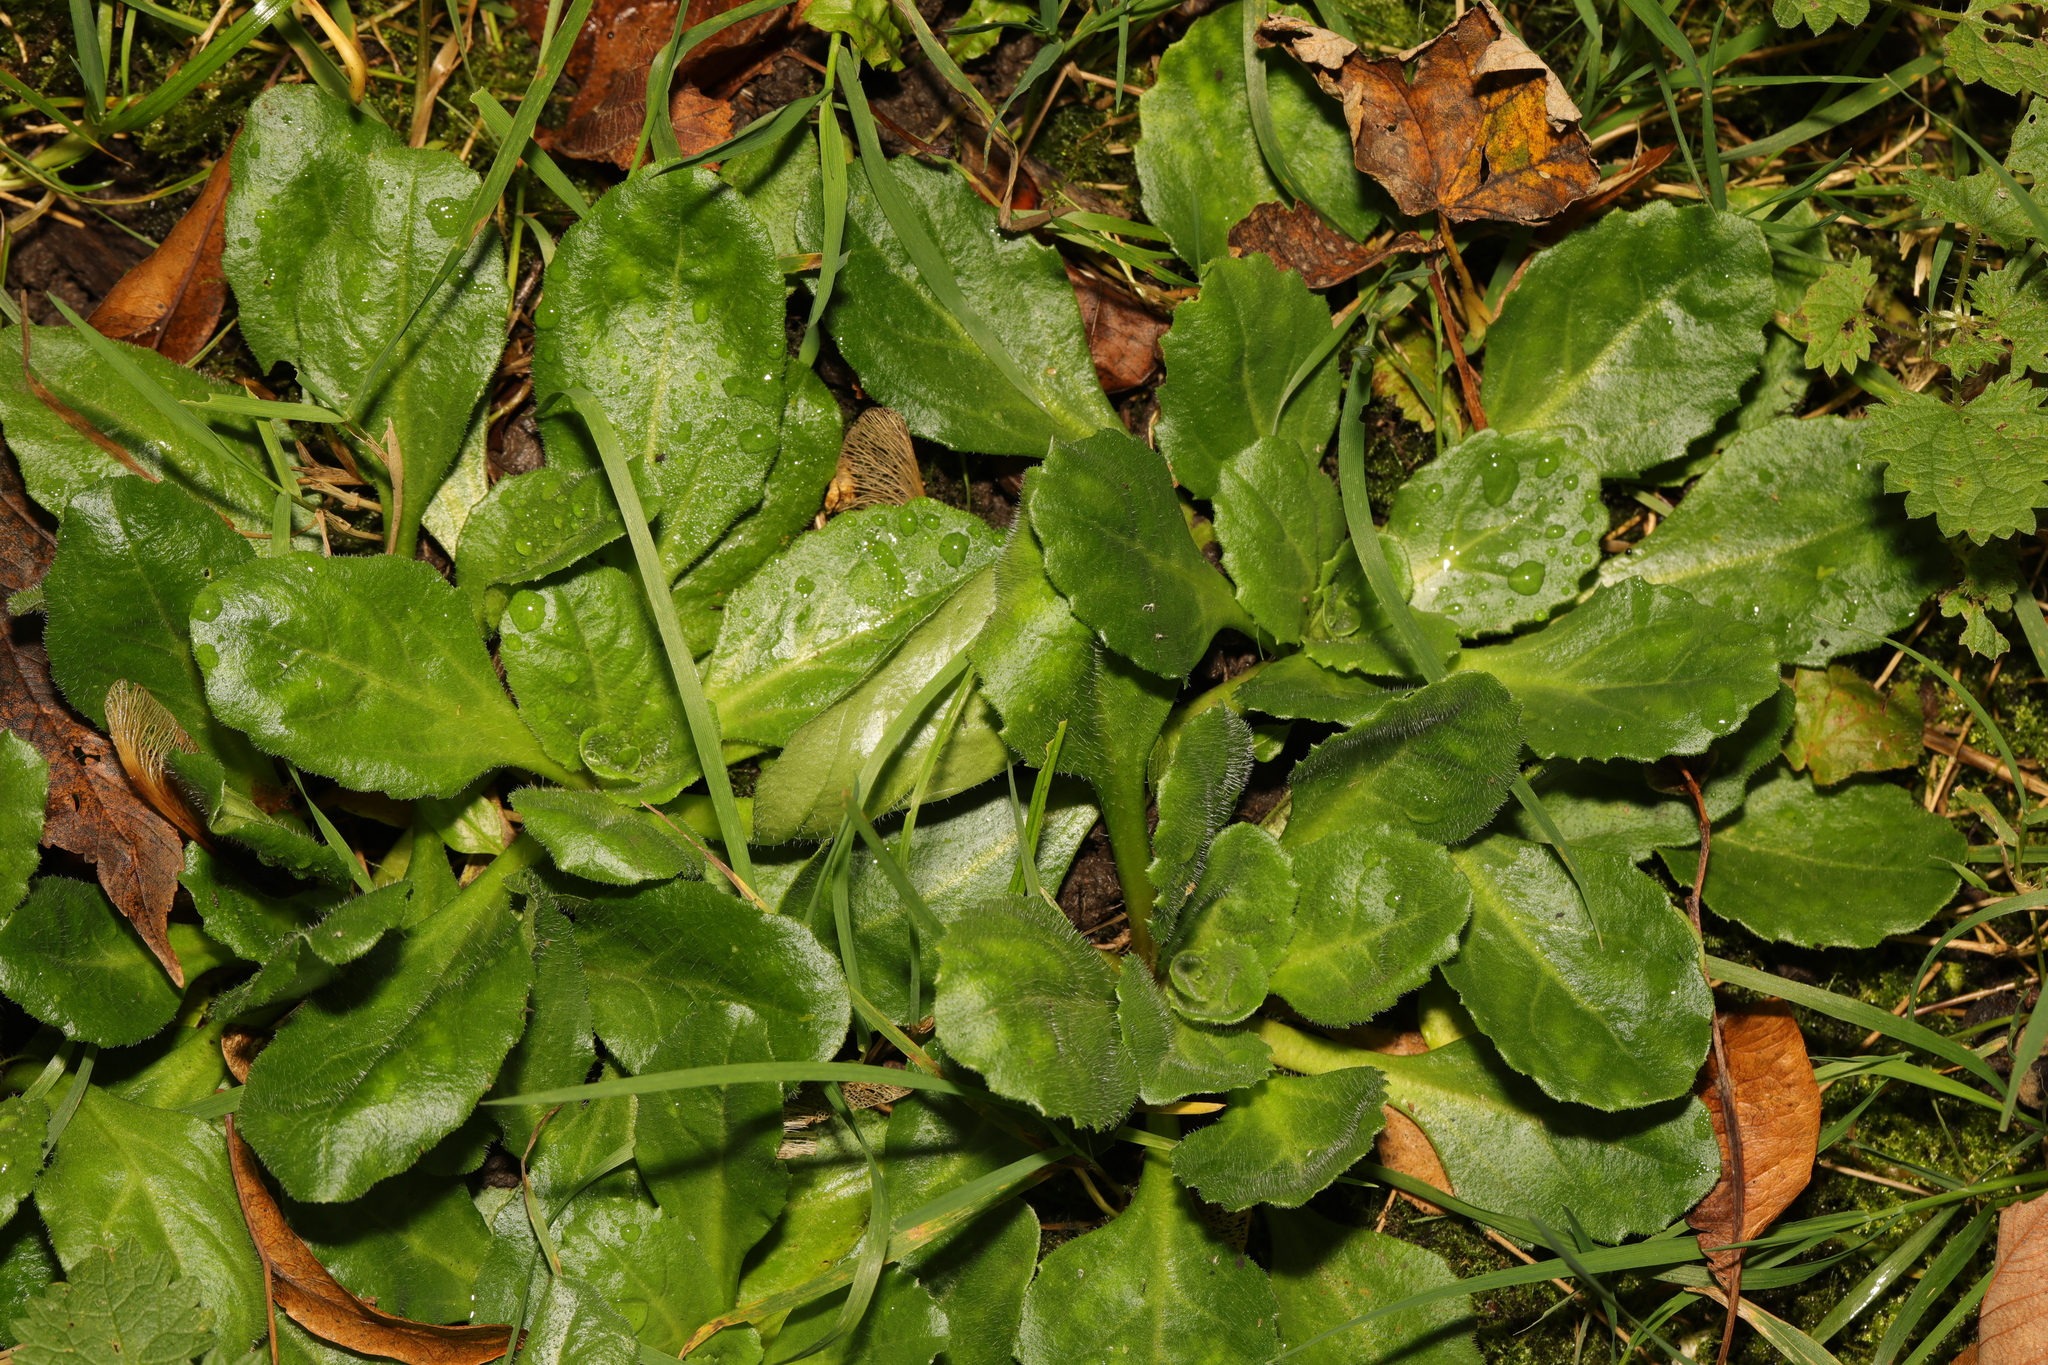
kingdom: Plantae
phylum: Tracheophyta
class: Magnoliopsida
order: Asterales
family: Asteraceae
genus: Bellis
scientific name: Bellis perennis
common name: Lawndaisy
